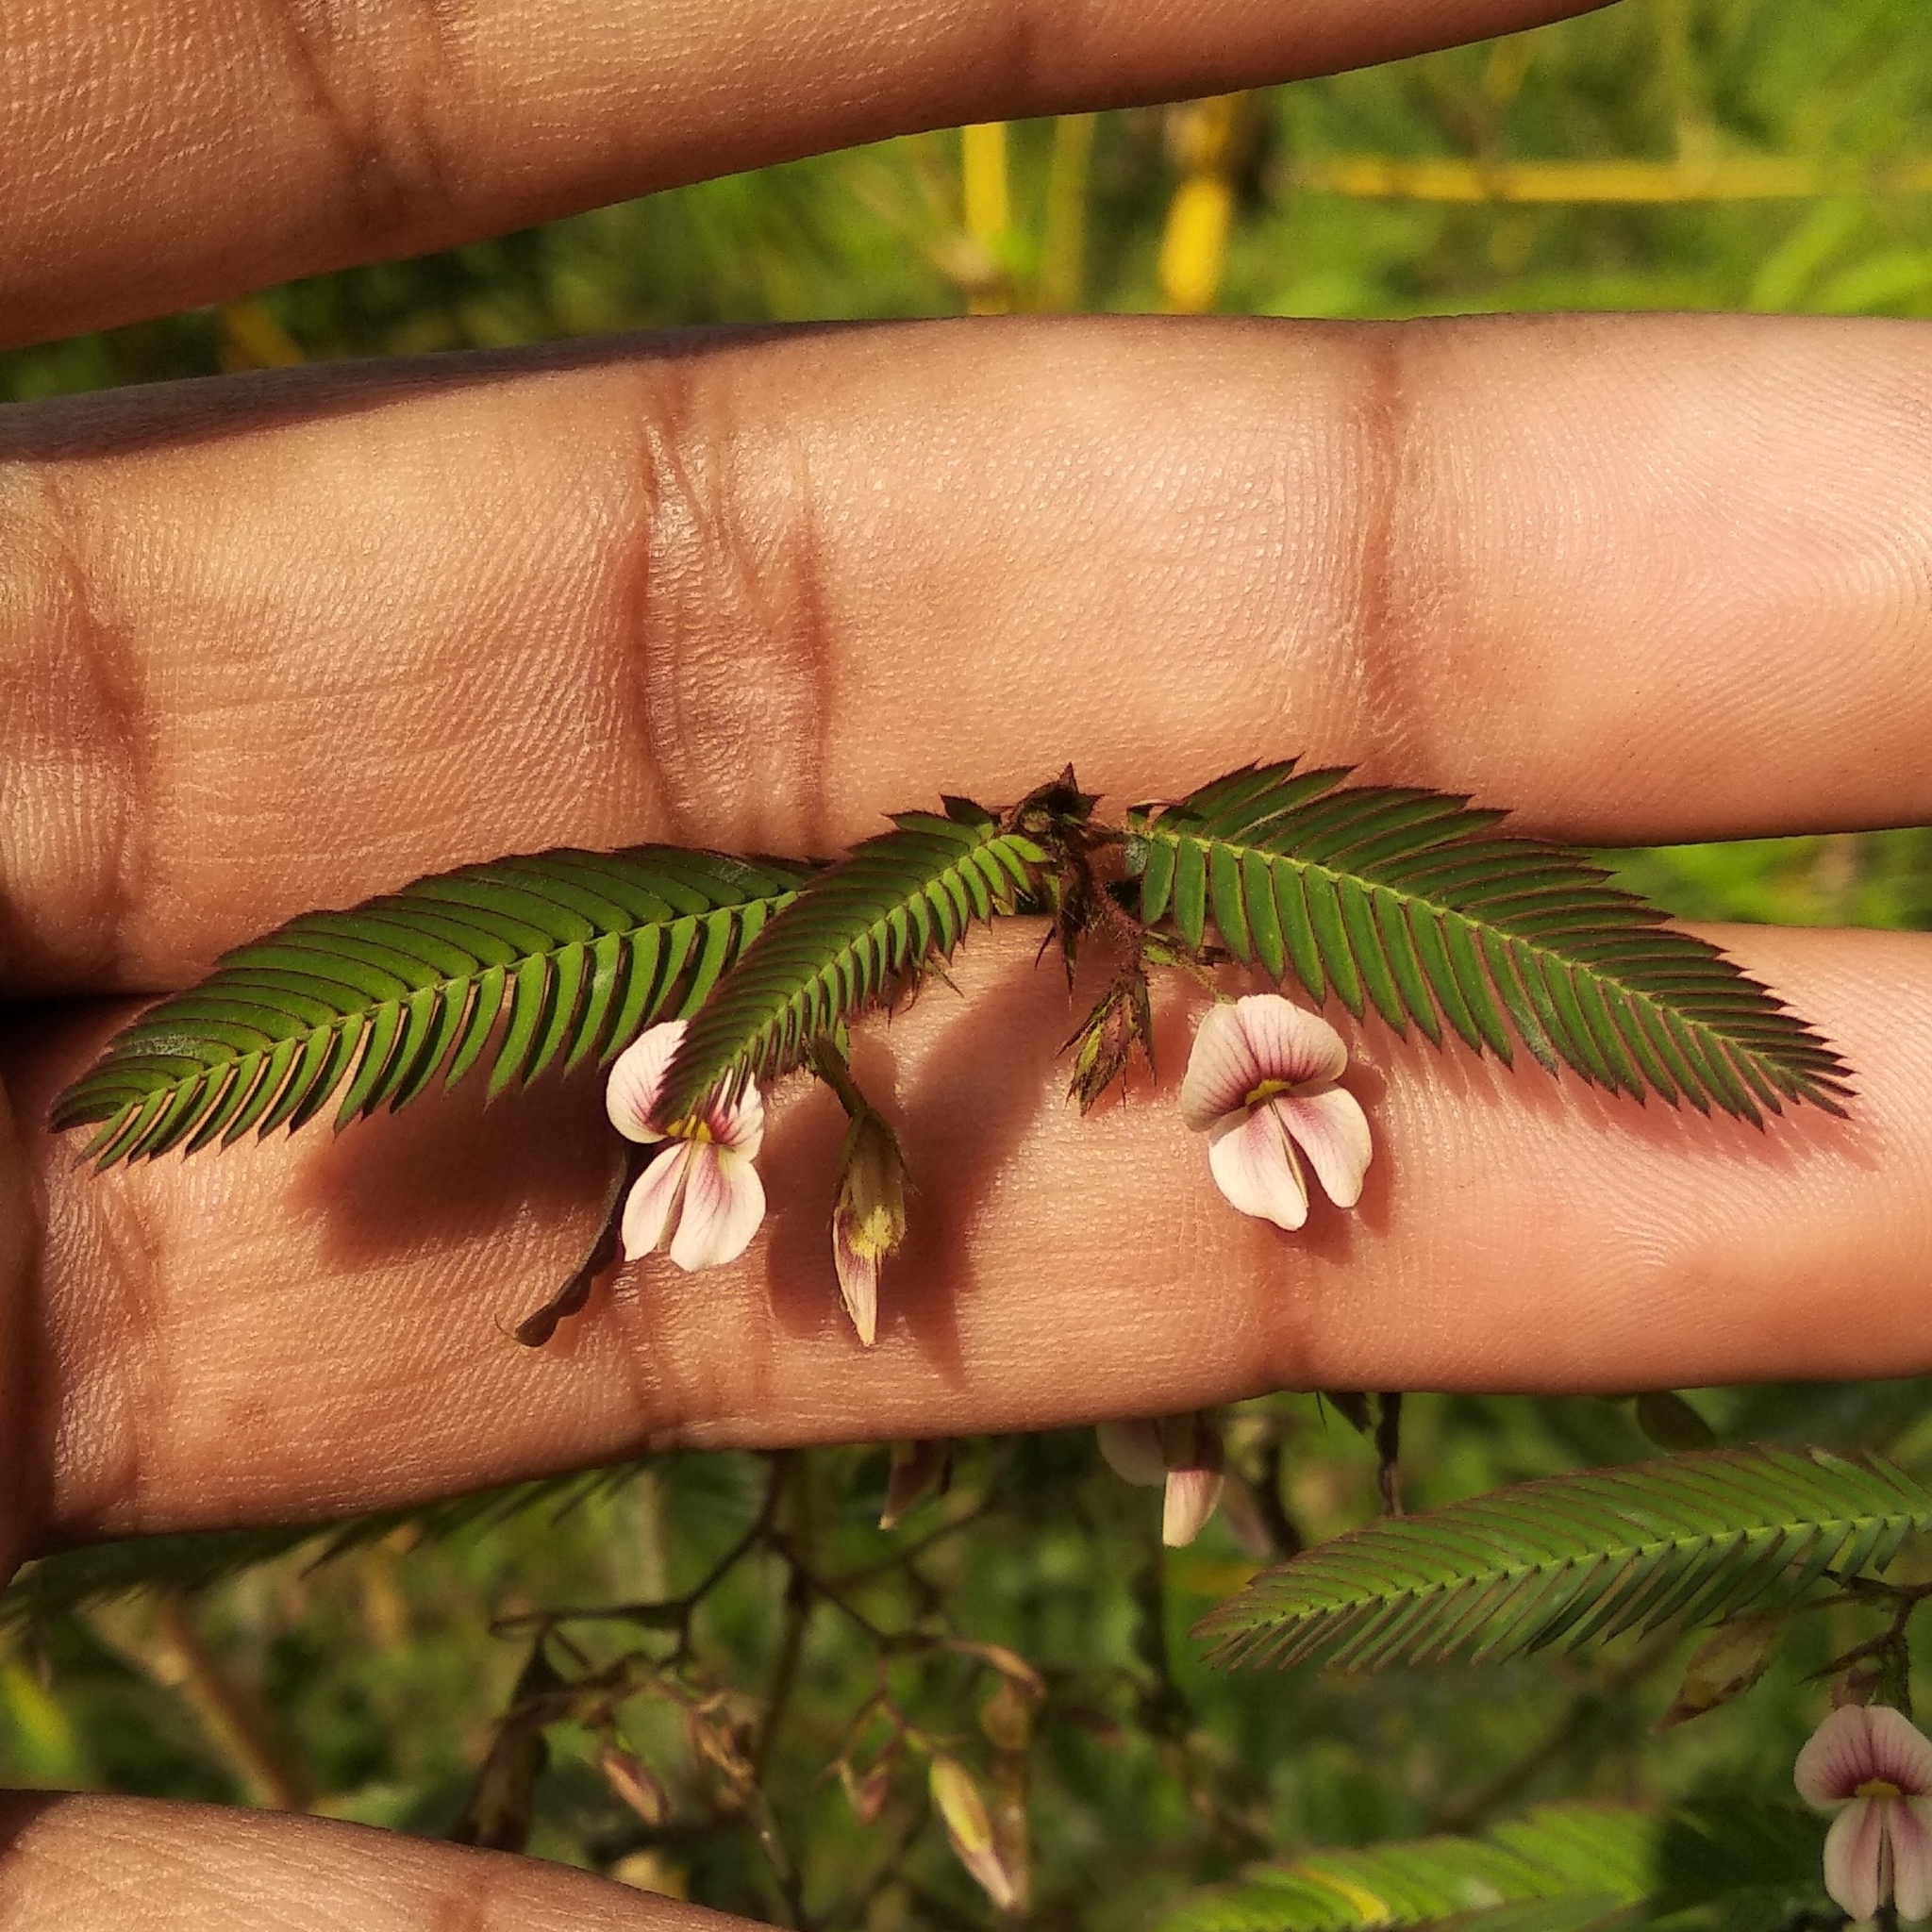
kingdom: Plantae
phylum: Tracheophyta
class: Magnoliopsida
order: Fabales
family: Fabaceae
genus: Aeschynomene
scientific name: Aeschynomene americana
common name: Joint-vetch
